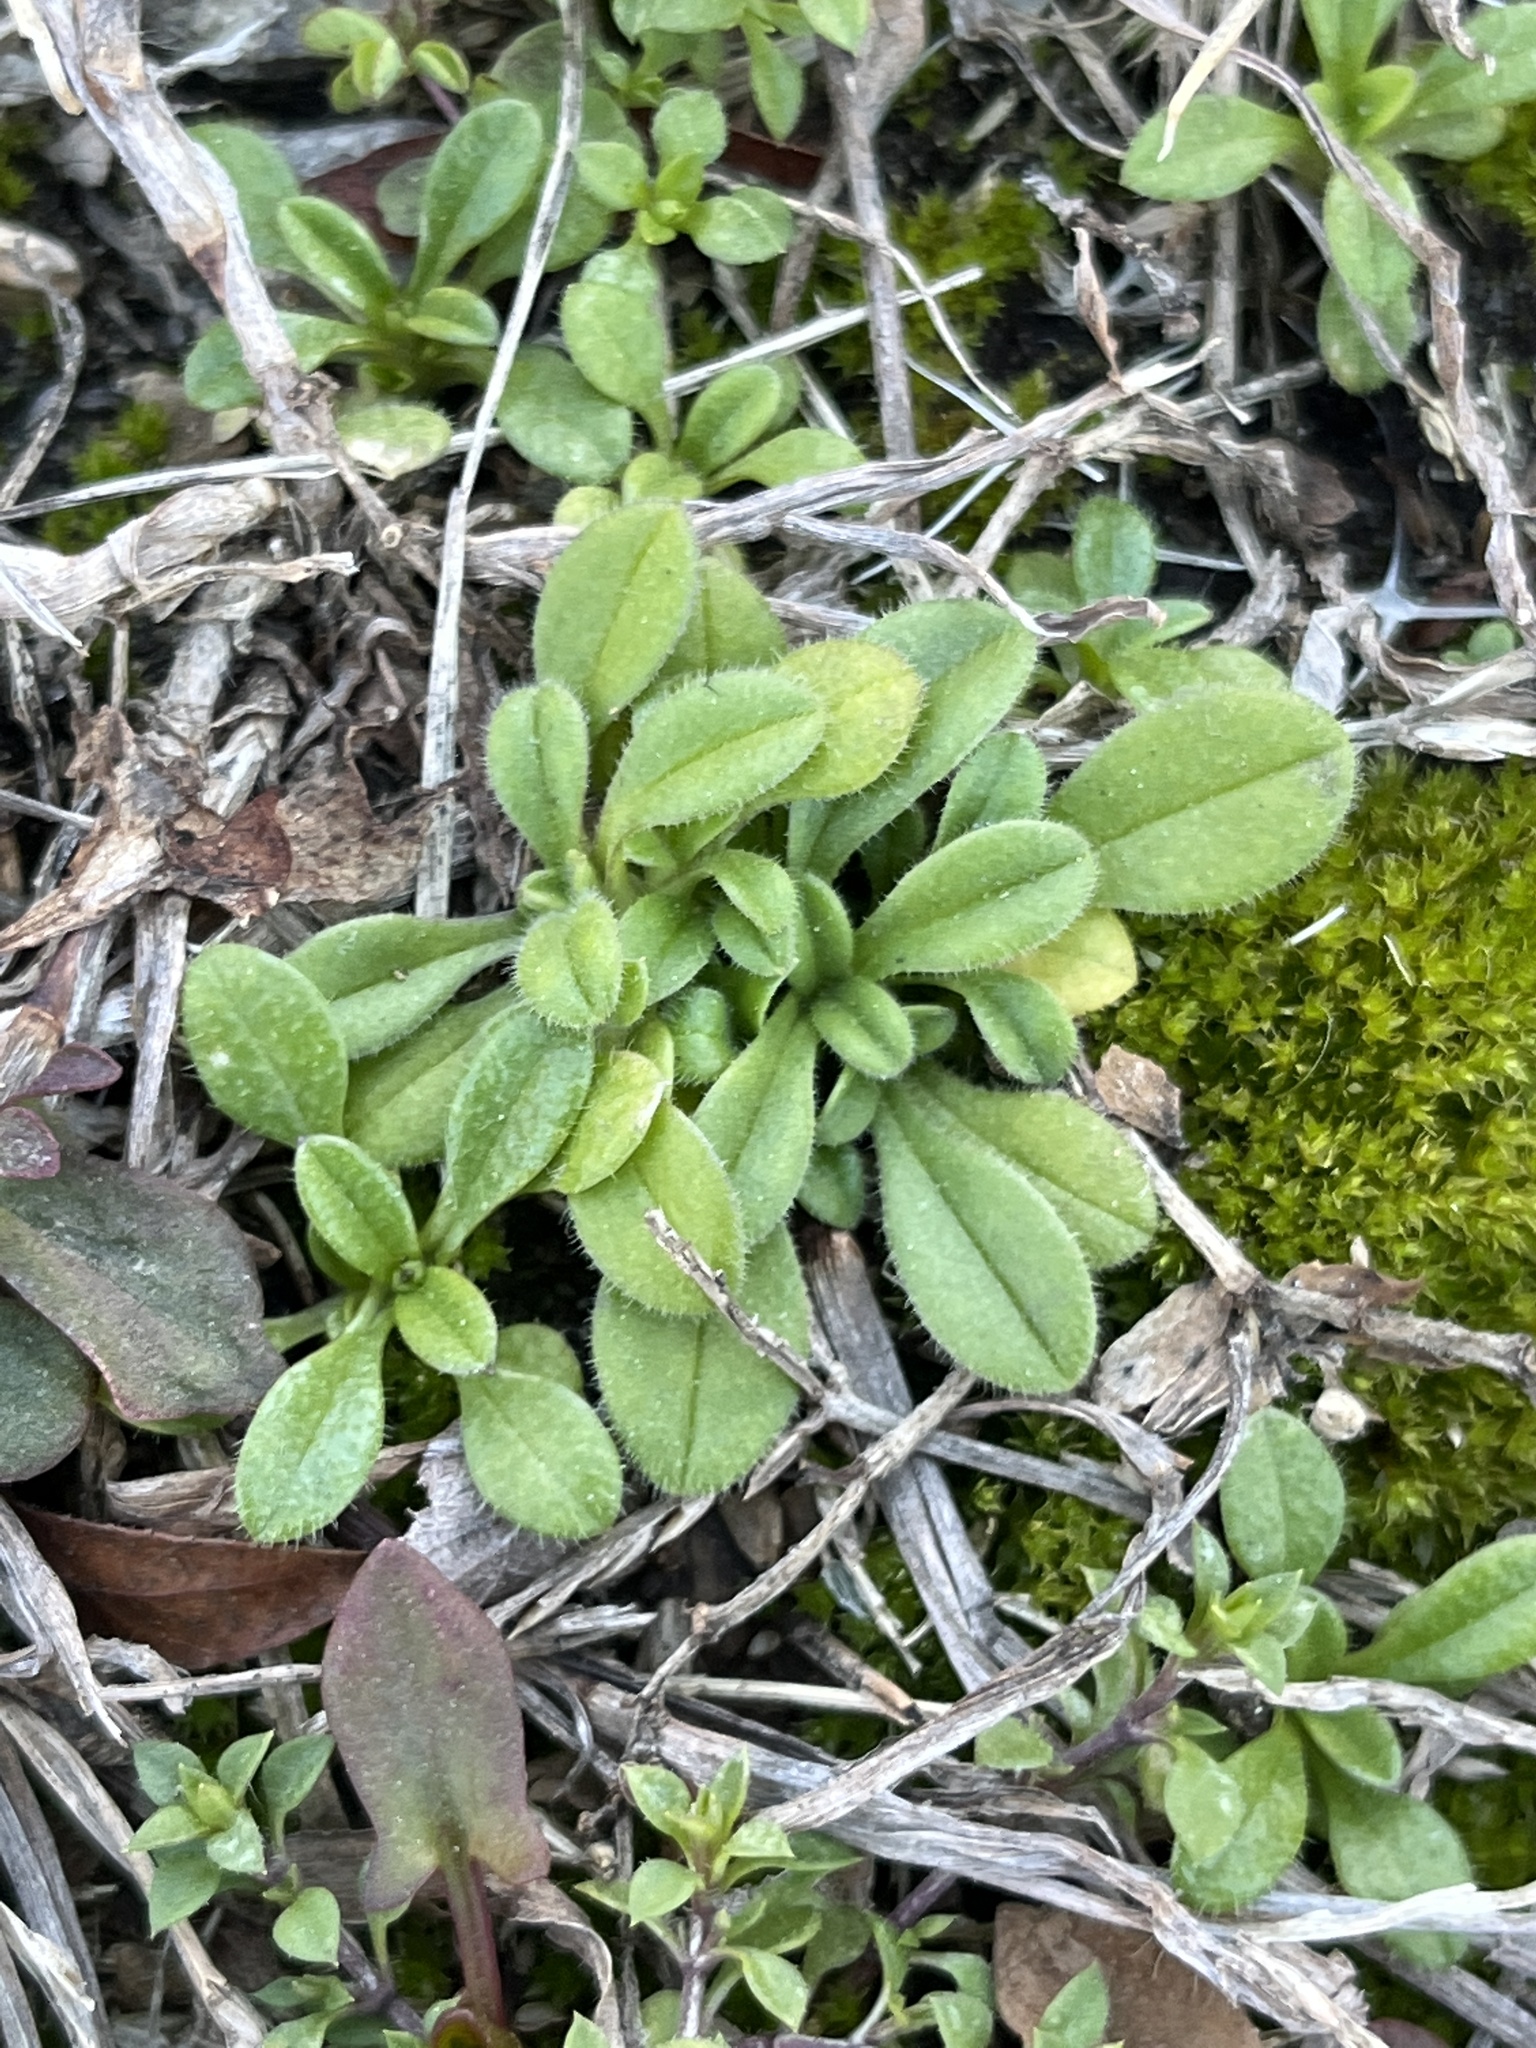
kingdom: Plantae
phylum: Tracheophyta
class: Magnoliopsida
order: Caryophyllales
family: Caryophyllaceae
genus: Cerastium
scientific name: Cerastium fontanum
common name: Common mouse-ear
